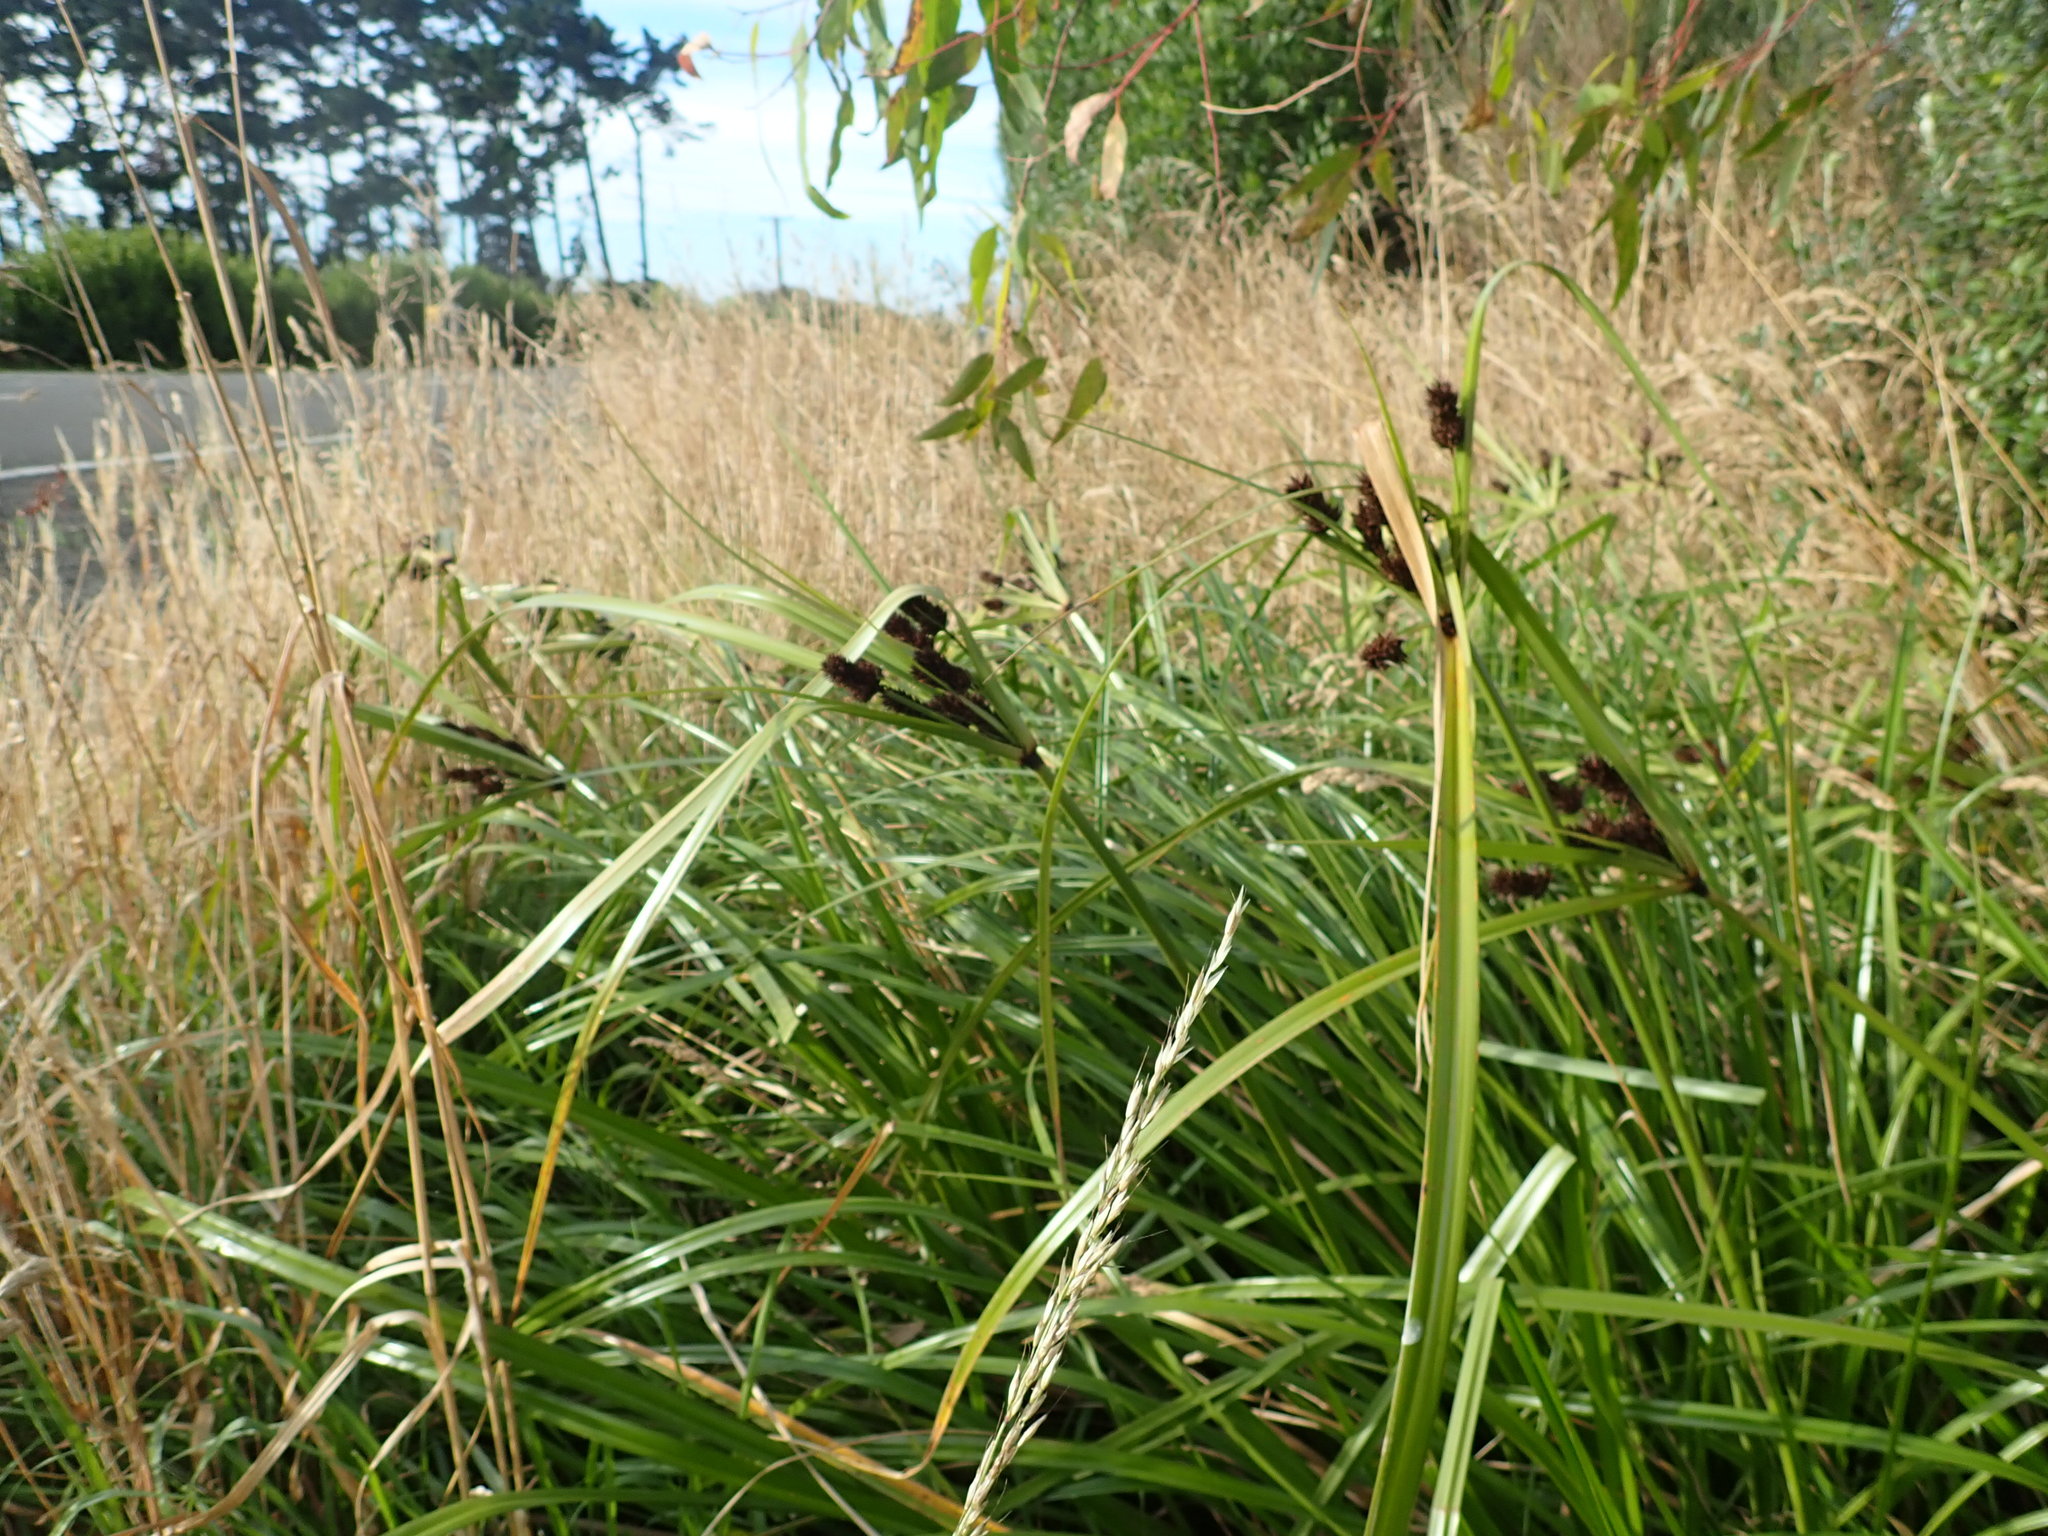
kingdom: Plantae
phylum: Tracheophyta
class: Liliopsida
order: Poales
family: Cyperaceae
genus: Cyperus
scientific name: Cyperus ustulatus
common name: Giant umbrella-sedge
